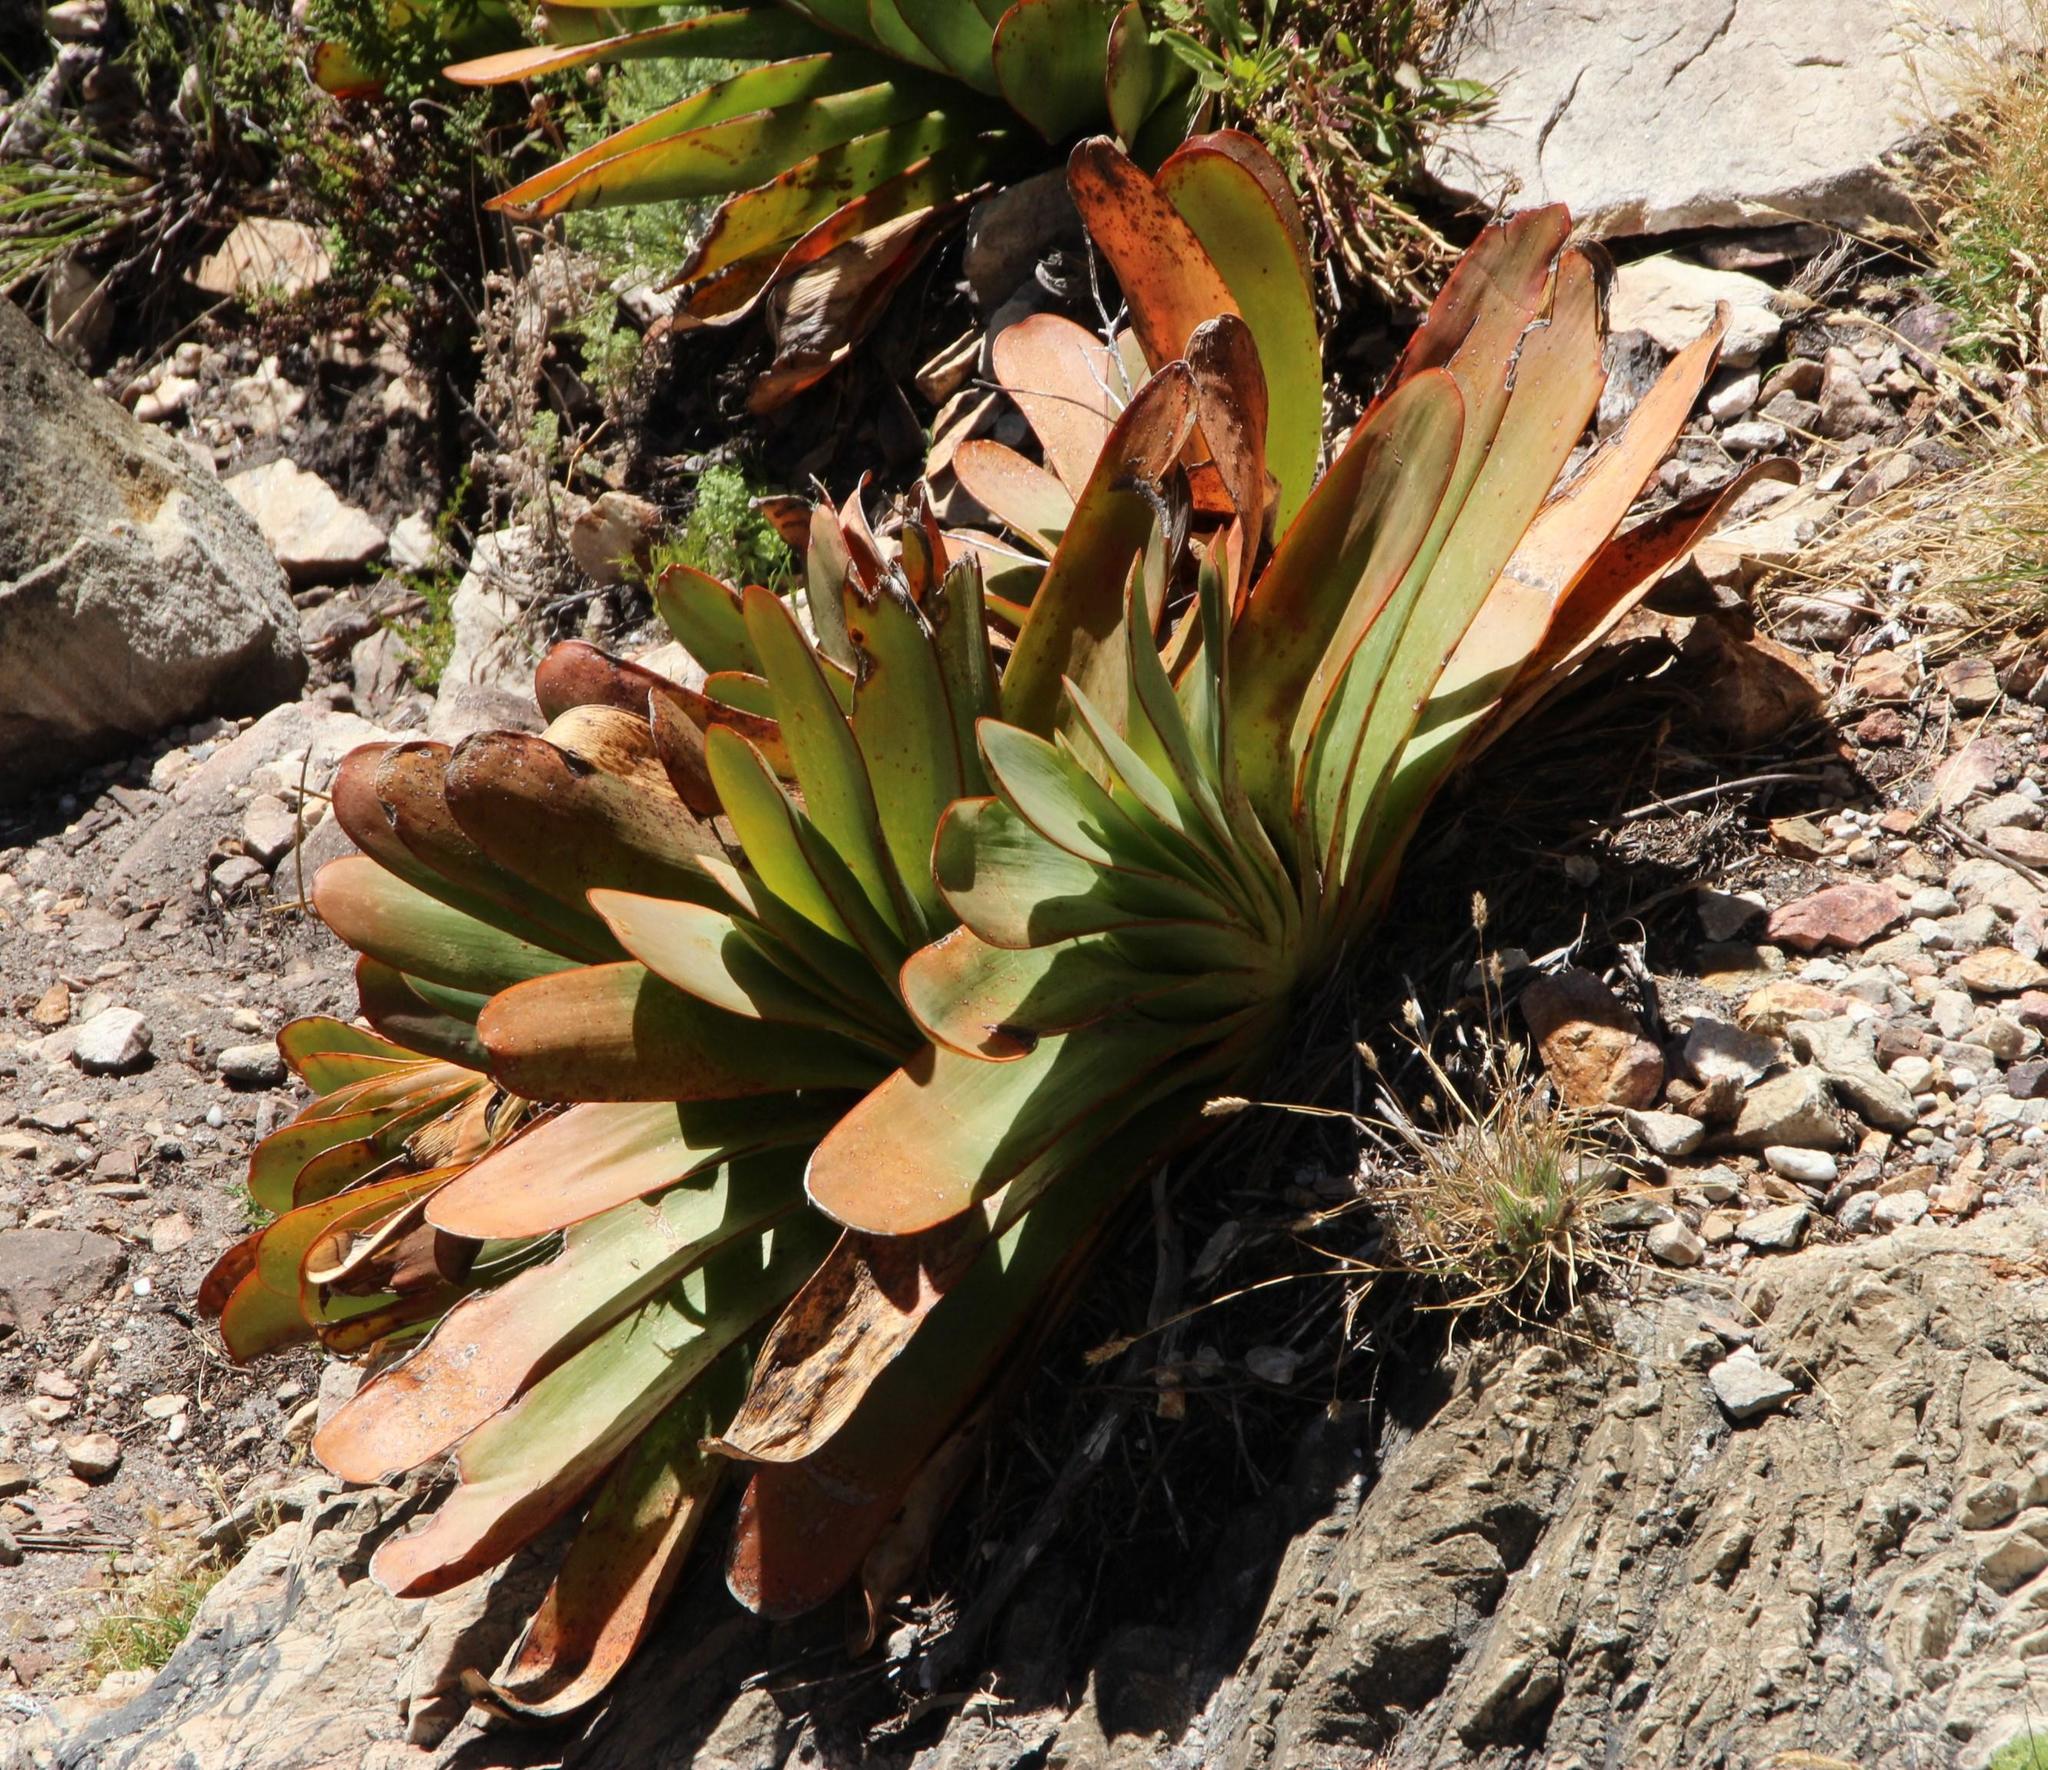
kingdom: Plantae
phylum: Tracheophyta
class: Liliopsida
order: Asparagales
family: Asphodelaceae
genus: Kumara
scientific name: Kumara haemanthifolia
